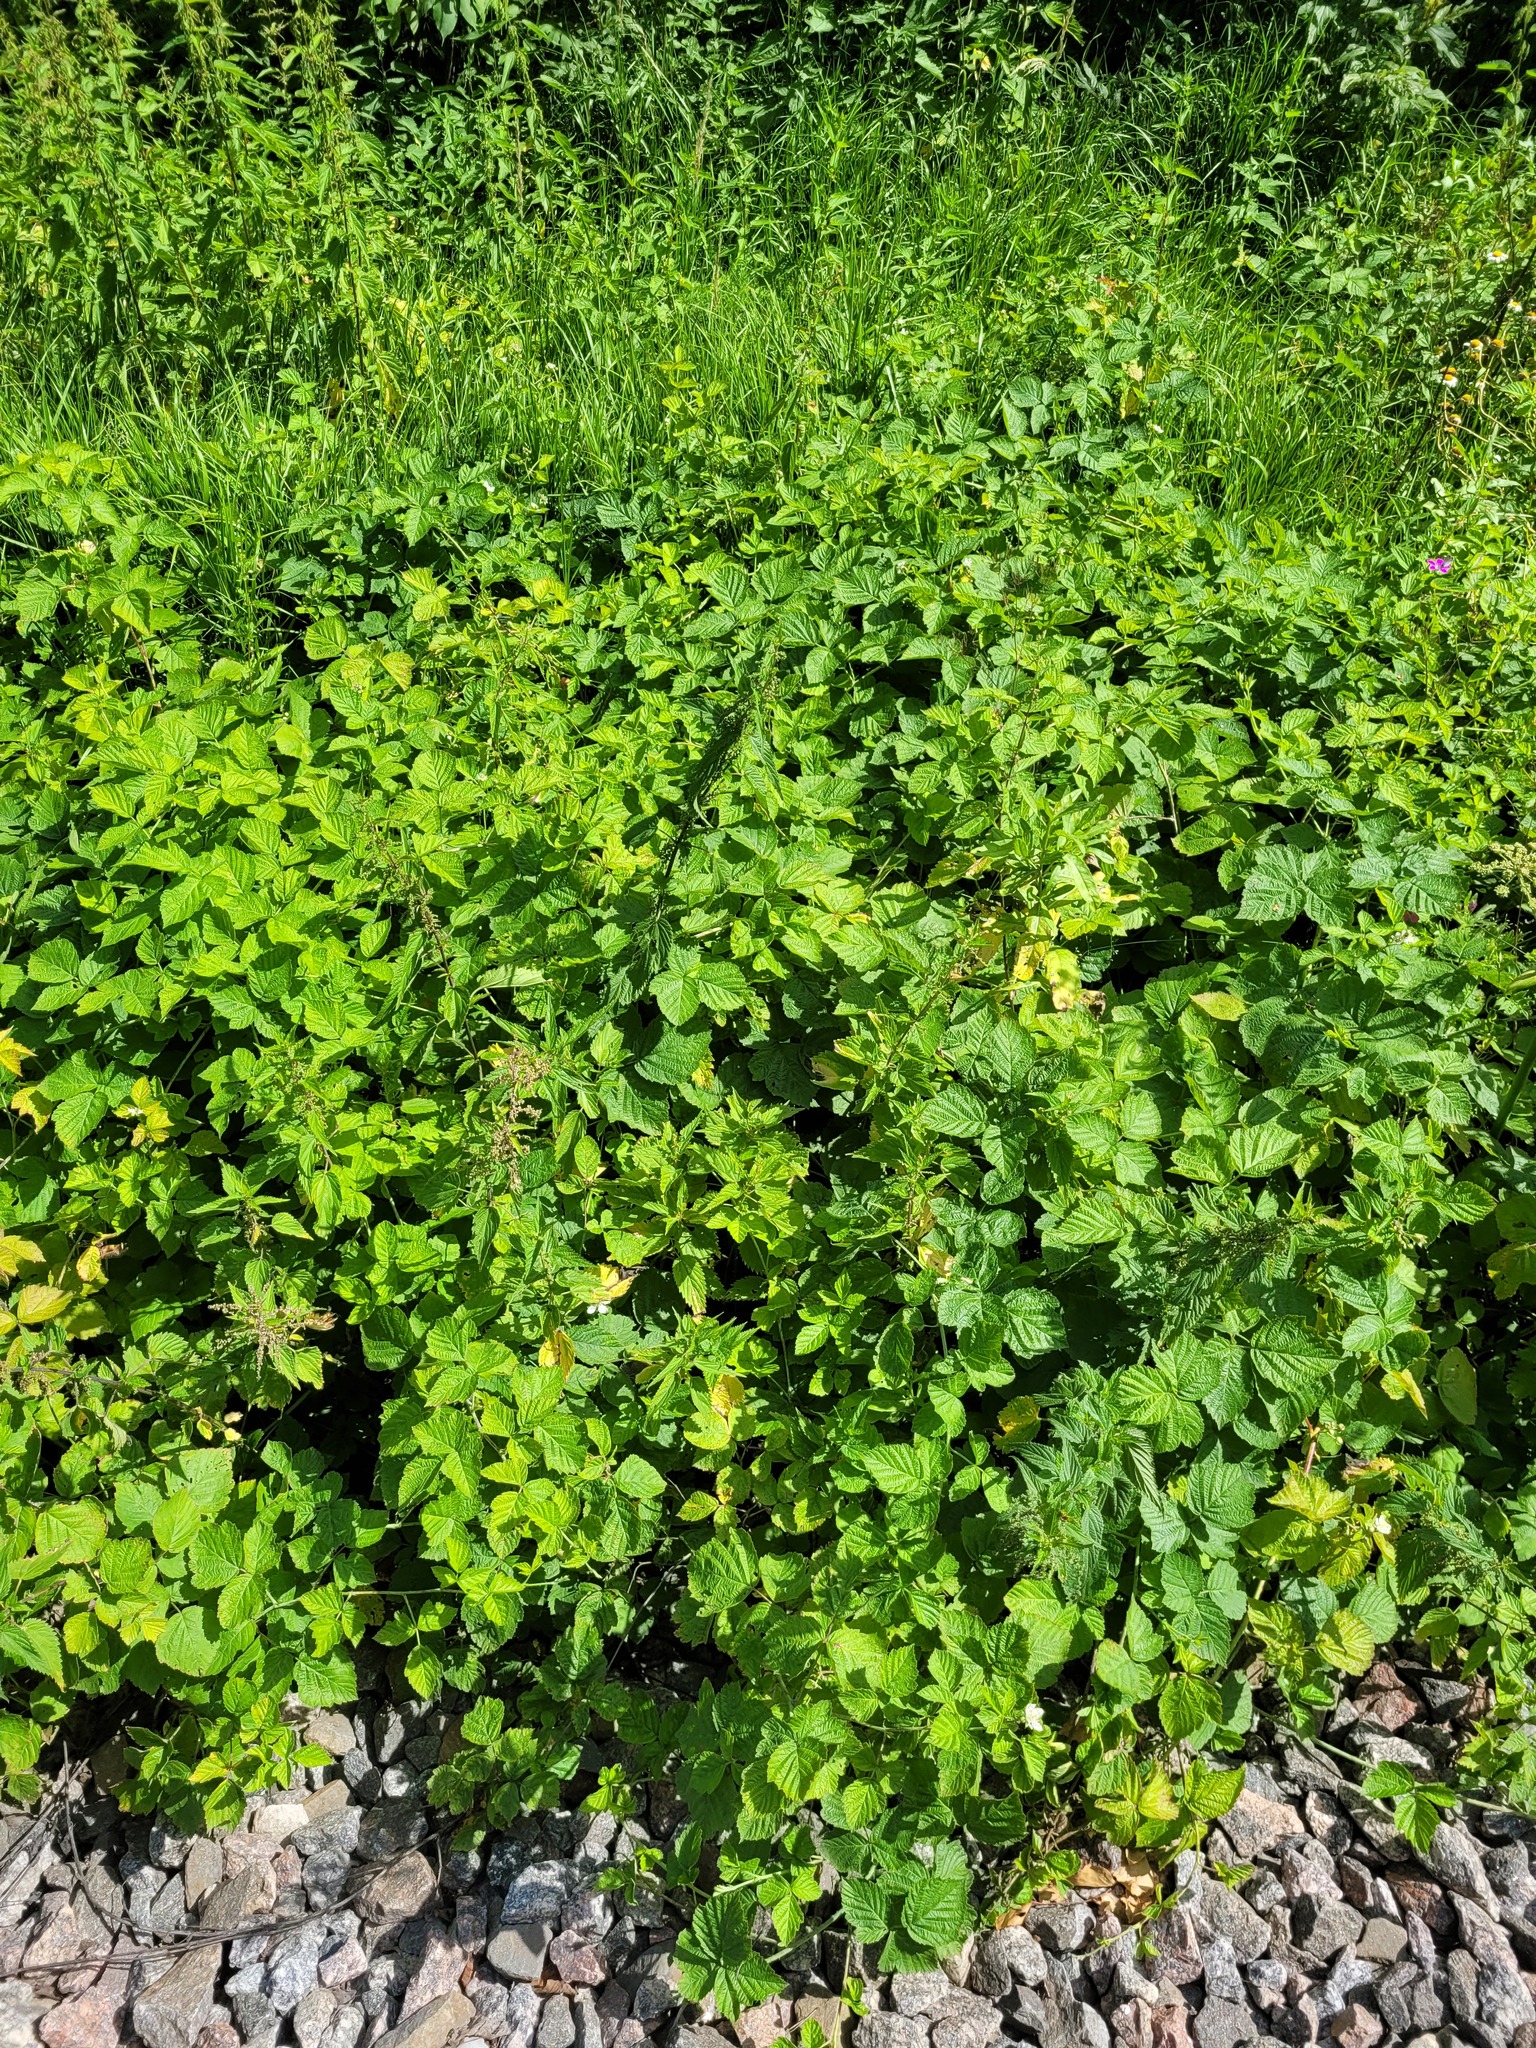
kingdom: Plantae
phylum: Tracheophyta
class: Magnoliopsida
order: Rosales
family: Rosaceae
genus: Rubus
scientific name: Rubus caesius
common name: Dewberry
